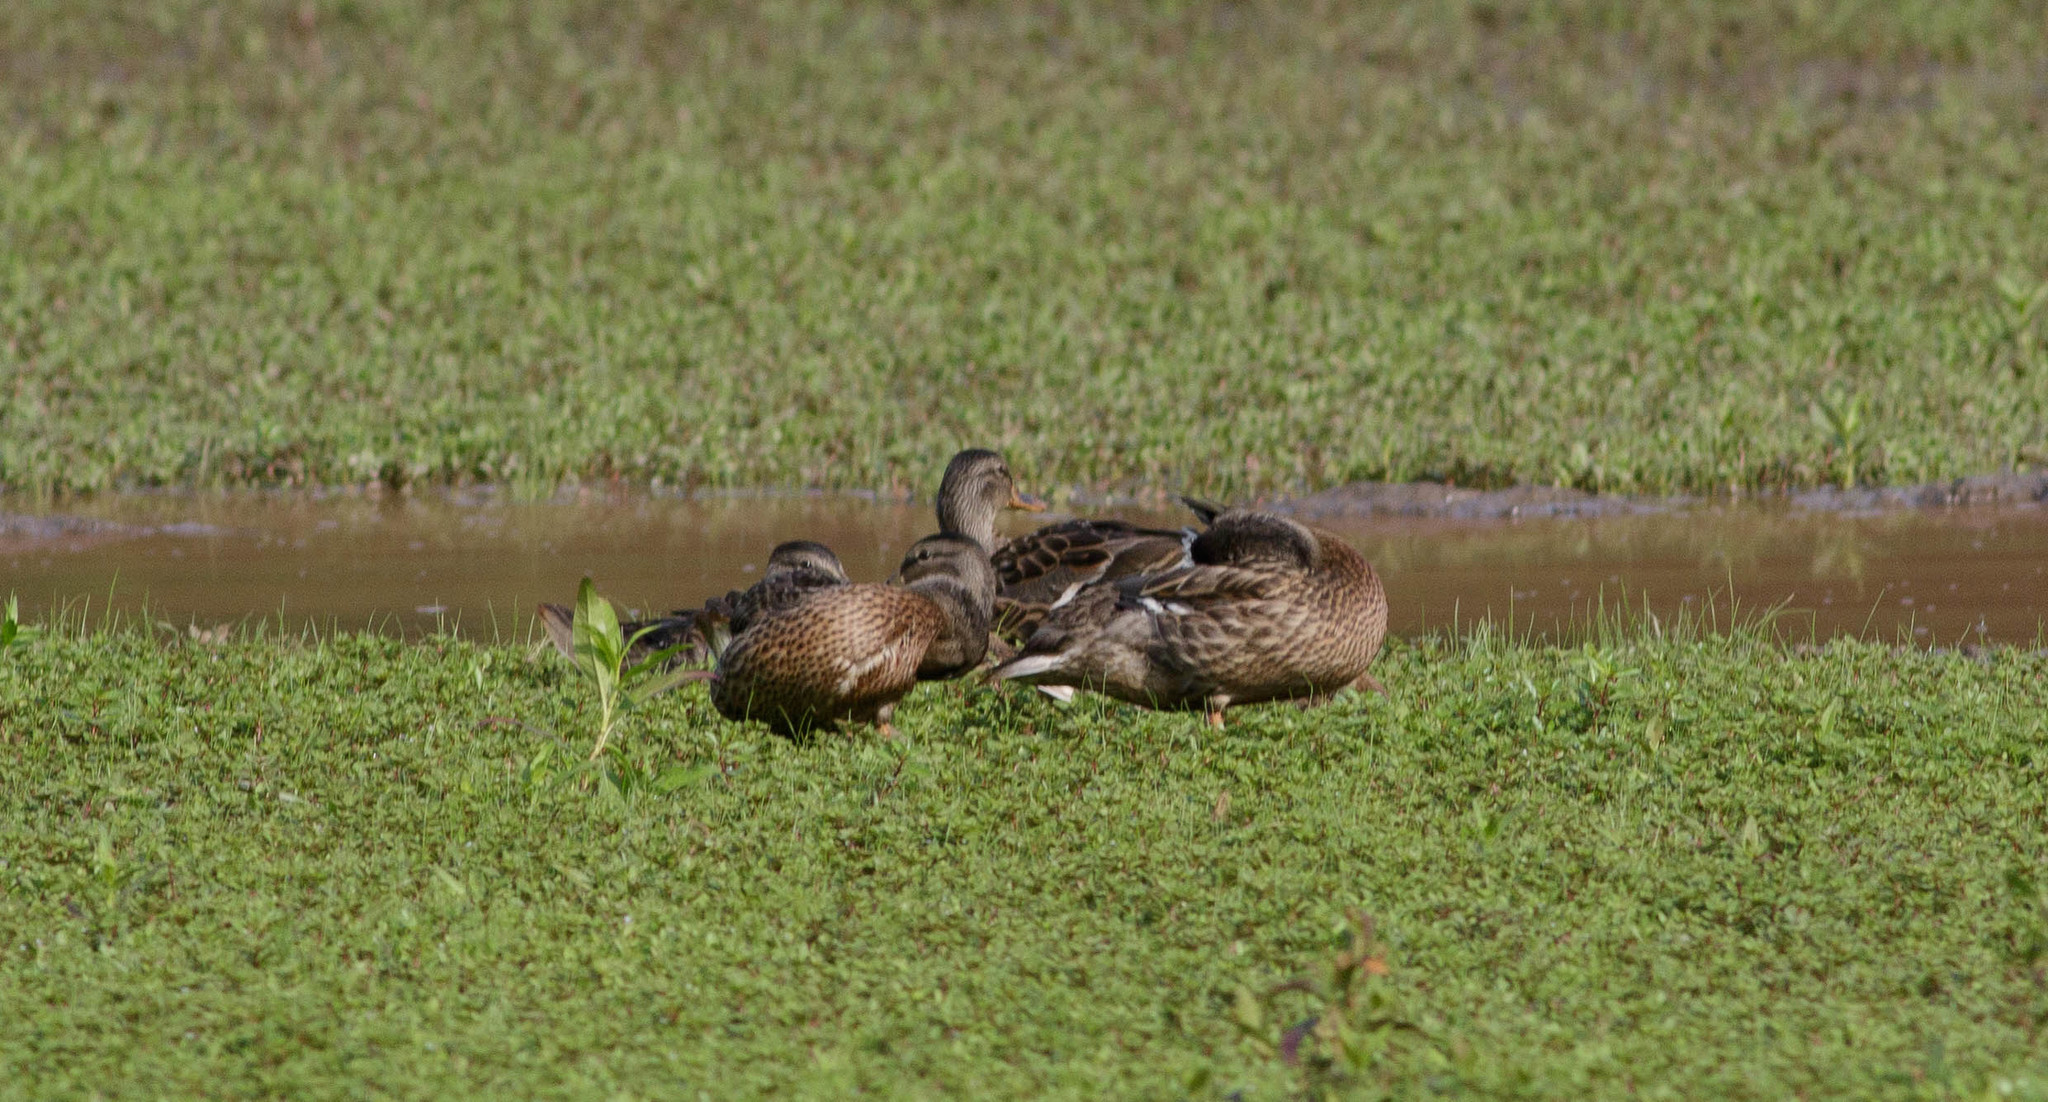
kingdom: Animalia
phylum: Chordata
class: Aves
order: Anseriformes
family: Anatidae
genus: Anas
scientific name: Anas platyrhynchos
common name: Mallard
